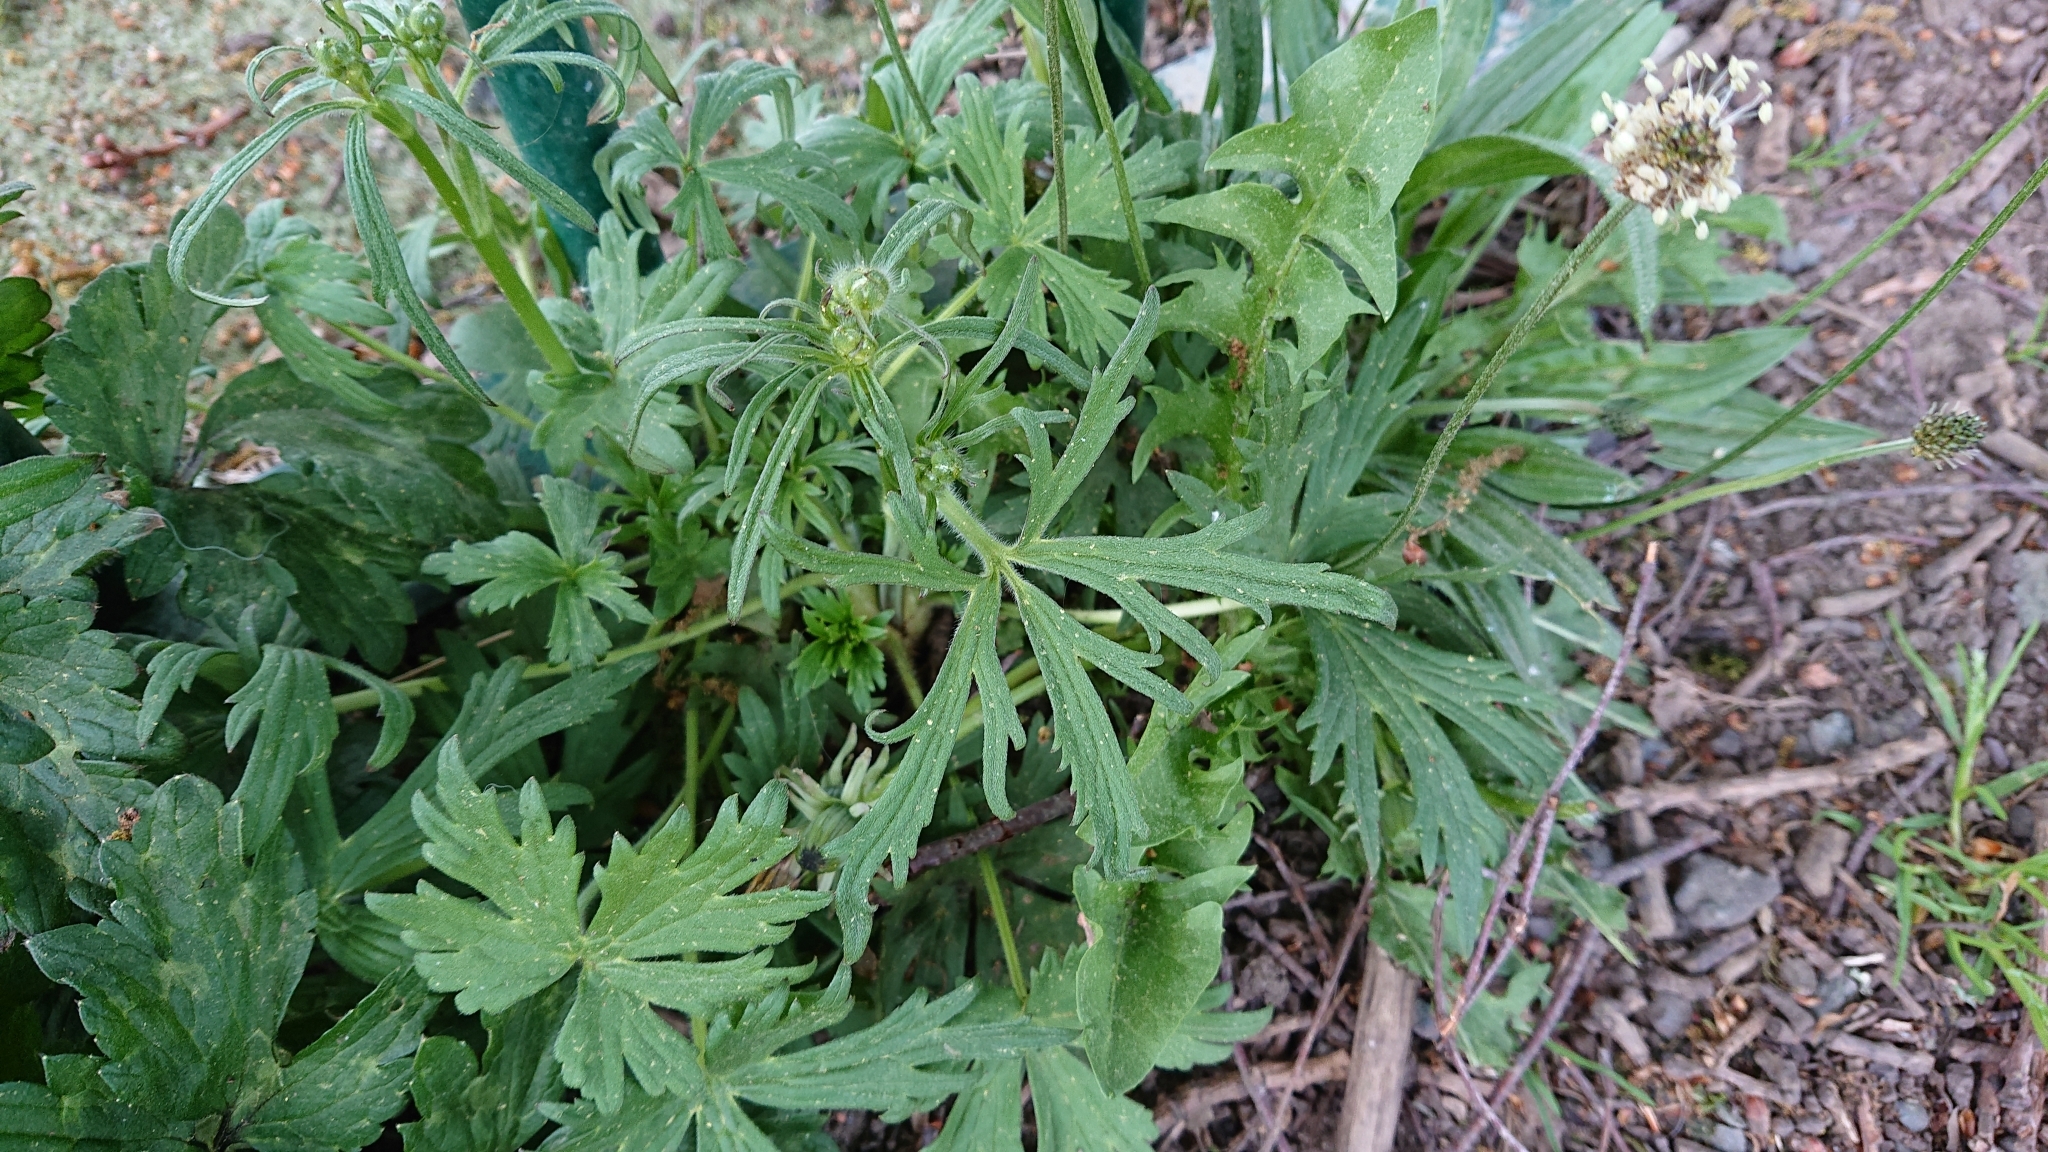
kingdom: Plantae
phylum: Tracheophyta
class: Magnoliopsida
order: Ranunculales
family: Ranunculaceae
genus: Ranunculus
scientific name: Ranunculus acris
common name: Meadow buttercup
